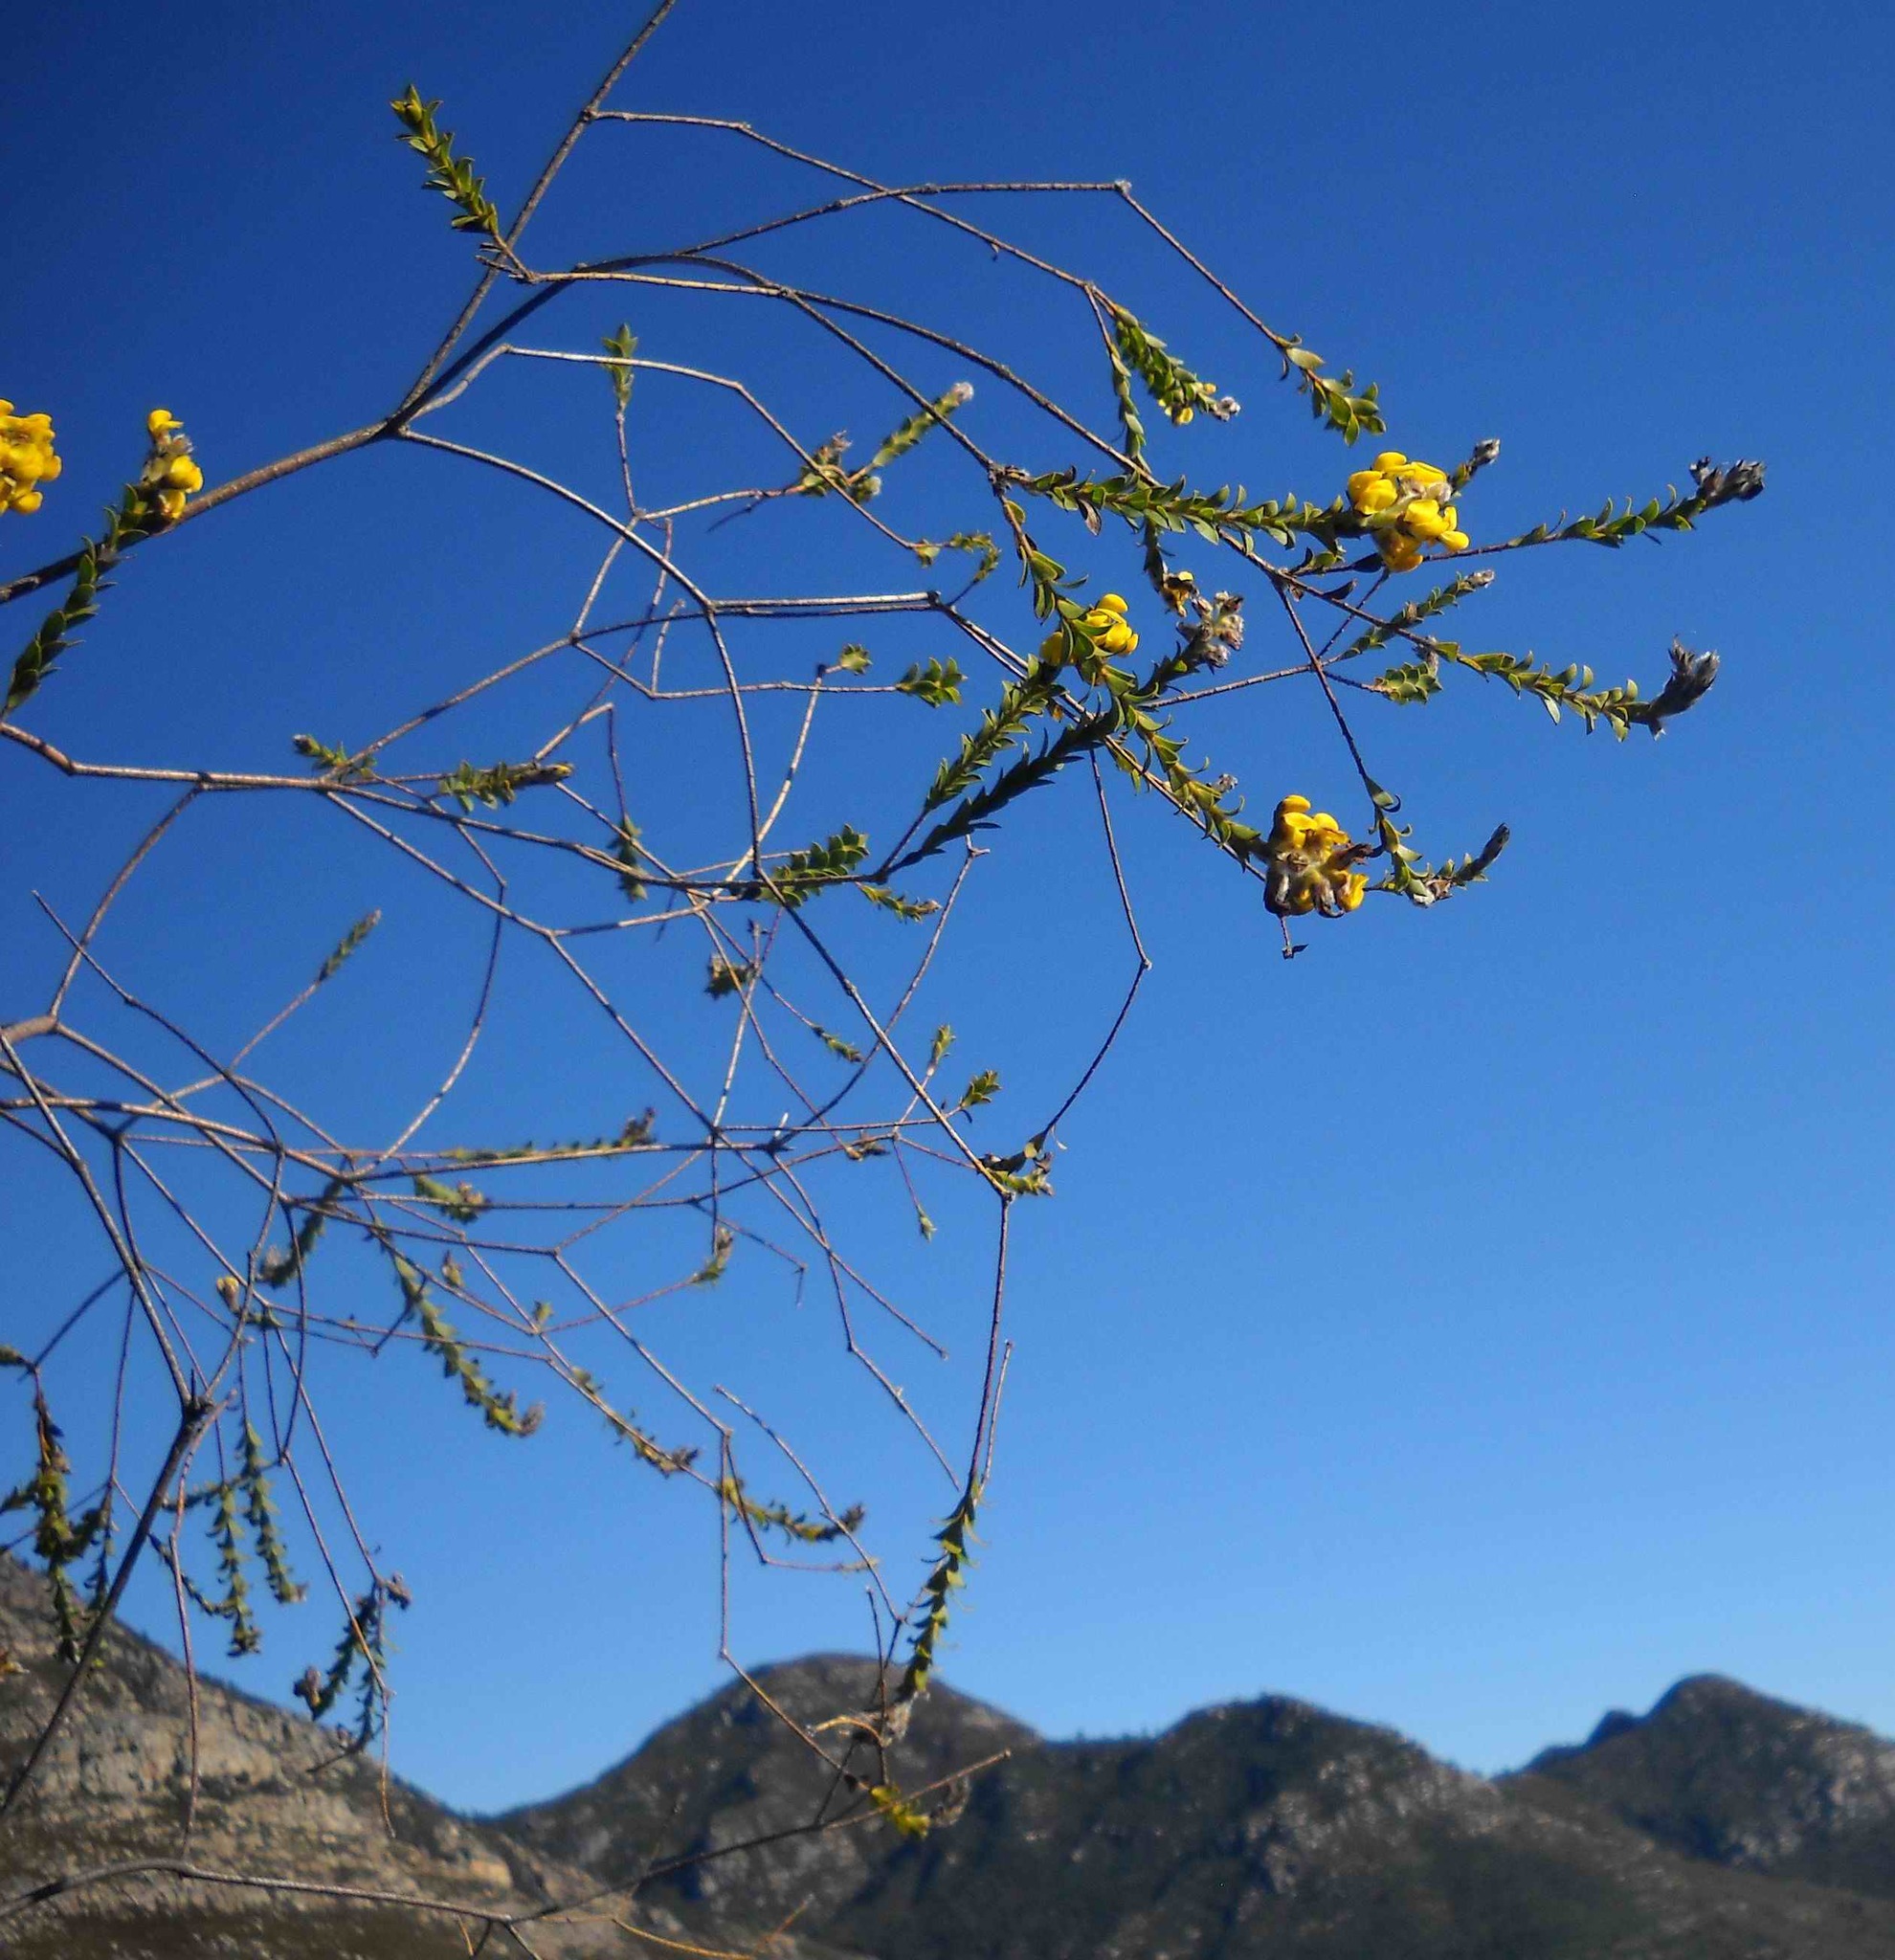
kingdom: Plantae
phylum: Tracheophyta
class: Magnoliopsida
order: Fabales
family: Fabaceae
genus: Liparia
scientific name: Liparia hirsuta
